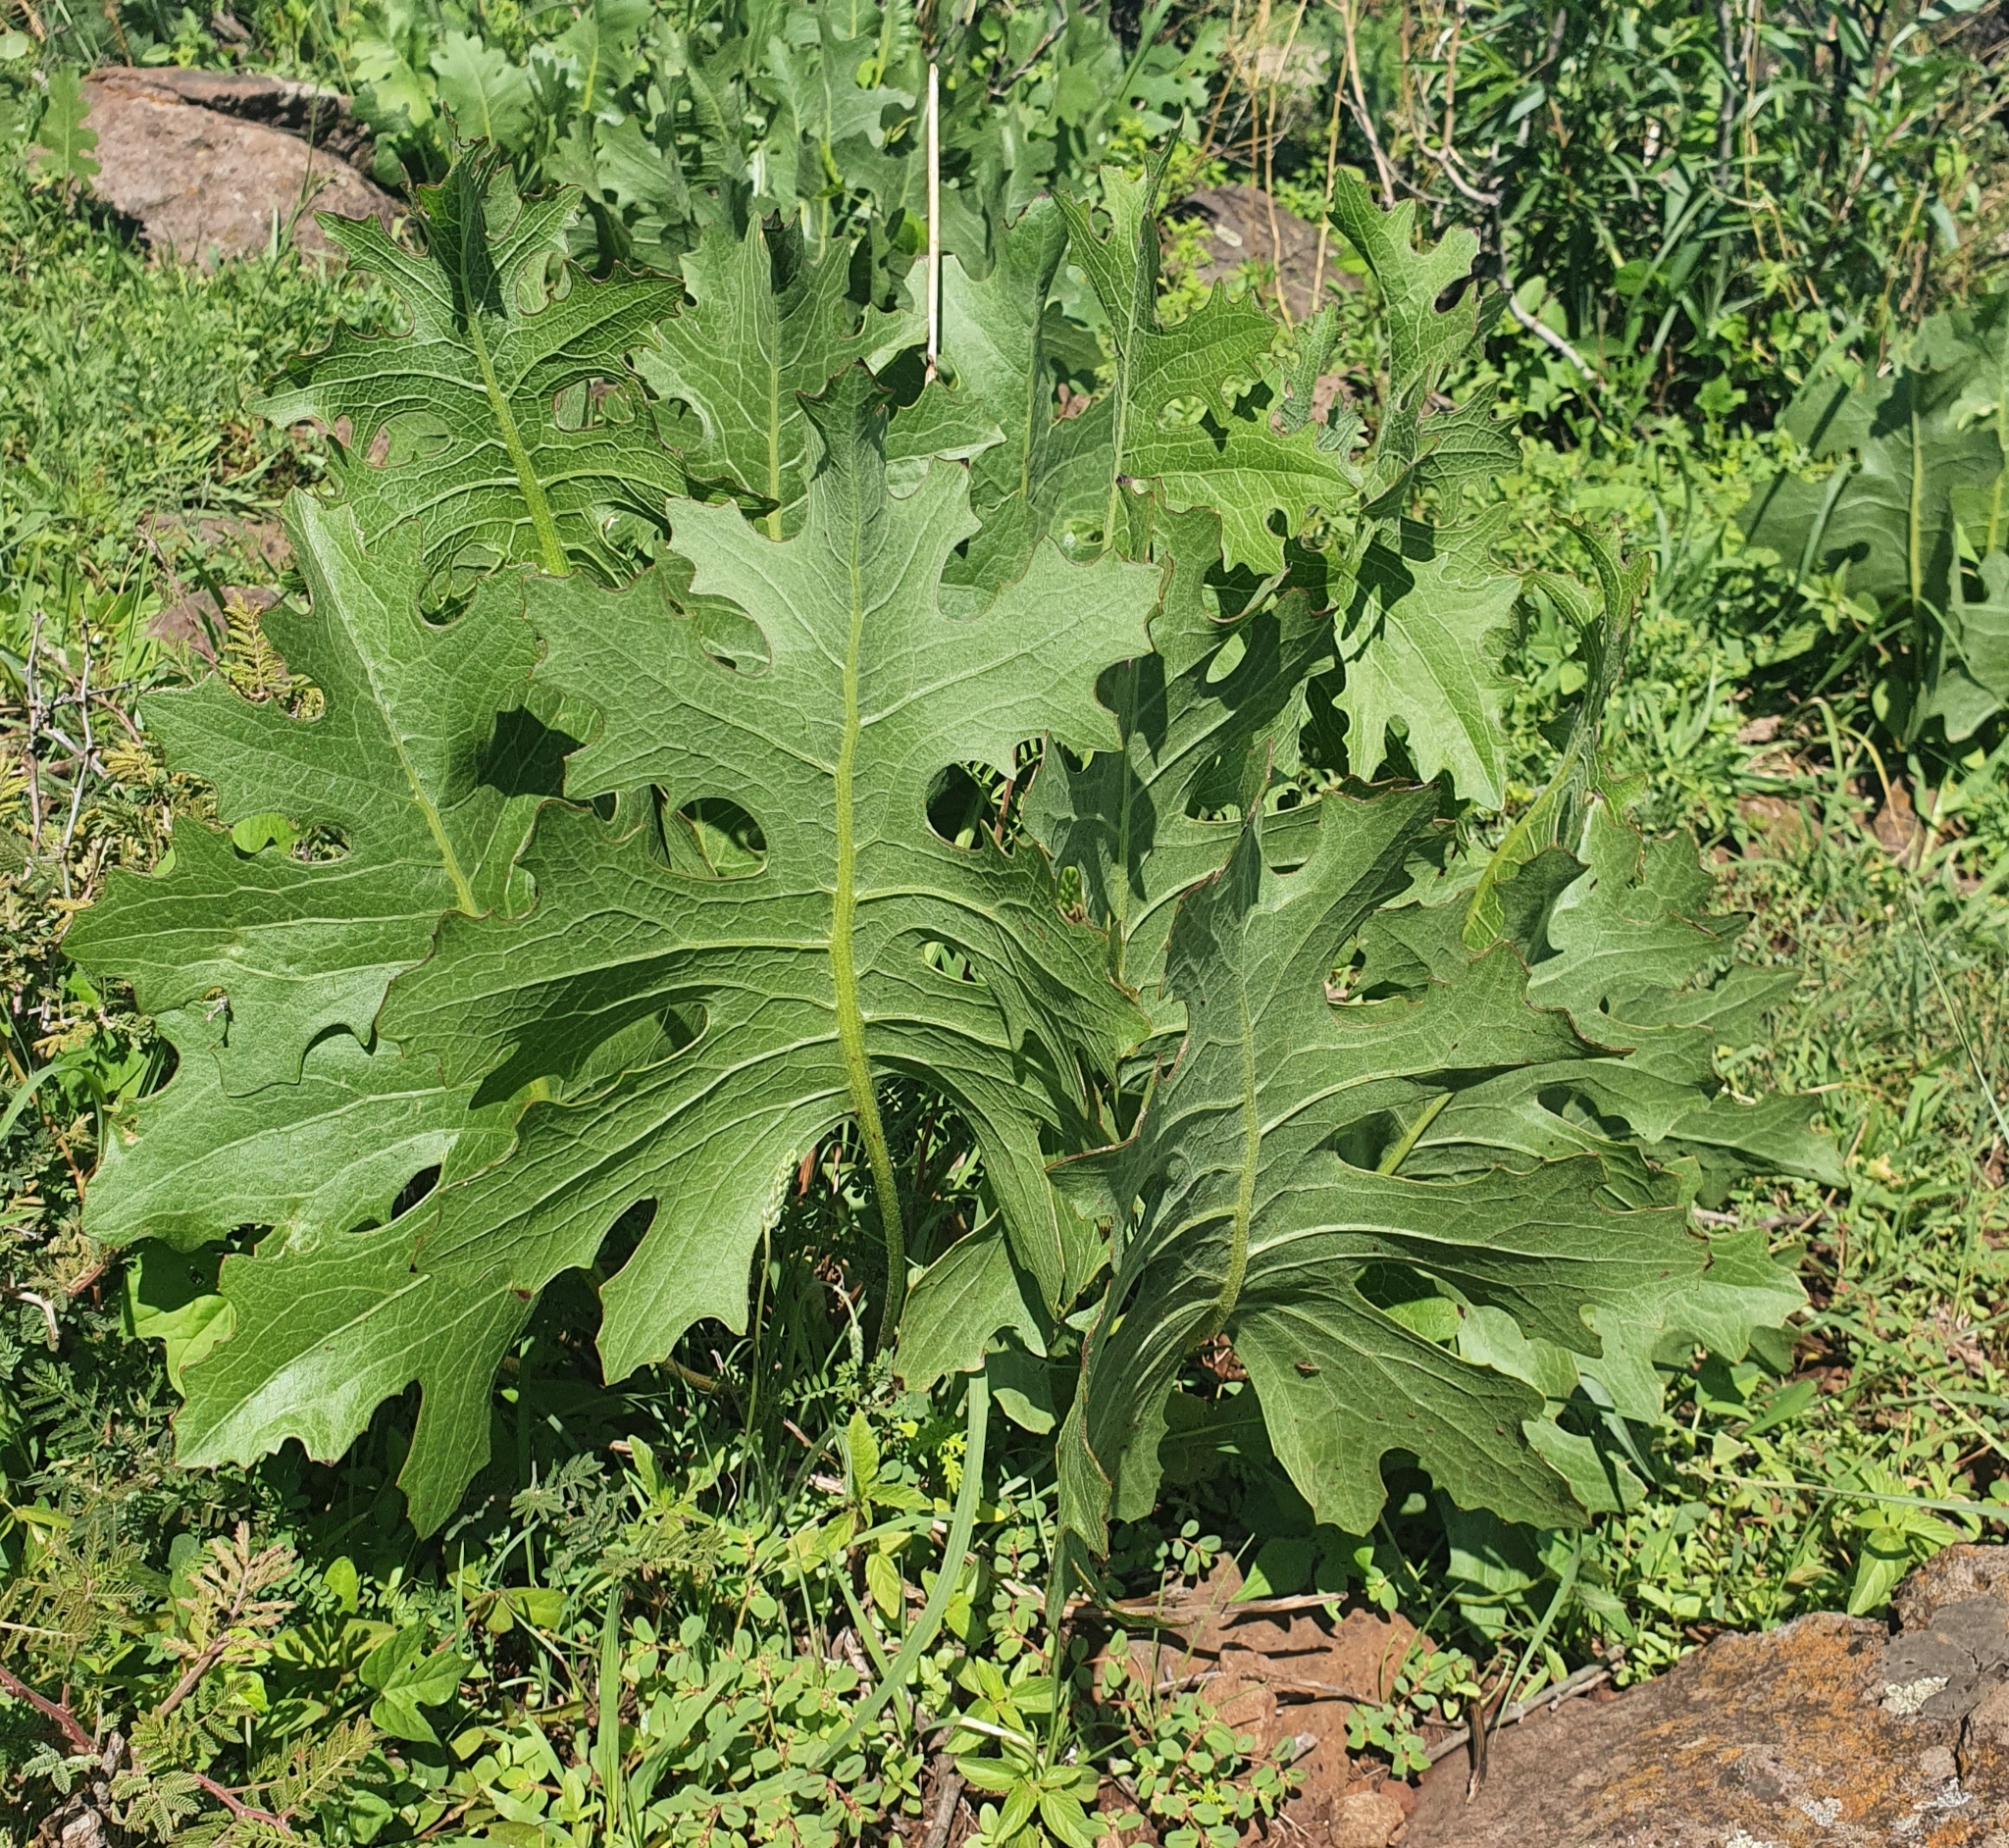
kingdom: Plantae
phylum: Tracheophyta
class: Magnoliopsida
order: Asterales
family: Asteraceae
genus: Psacalium
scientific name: Psacalium sinuatum
